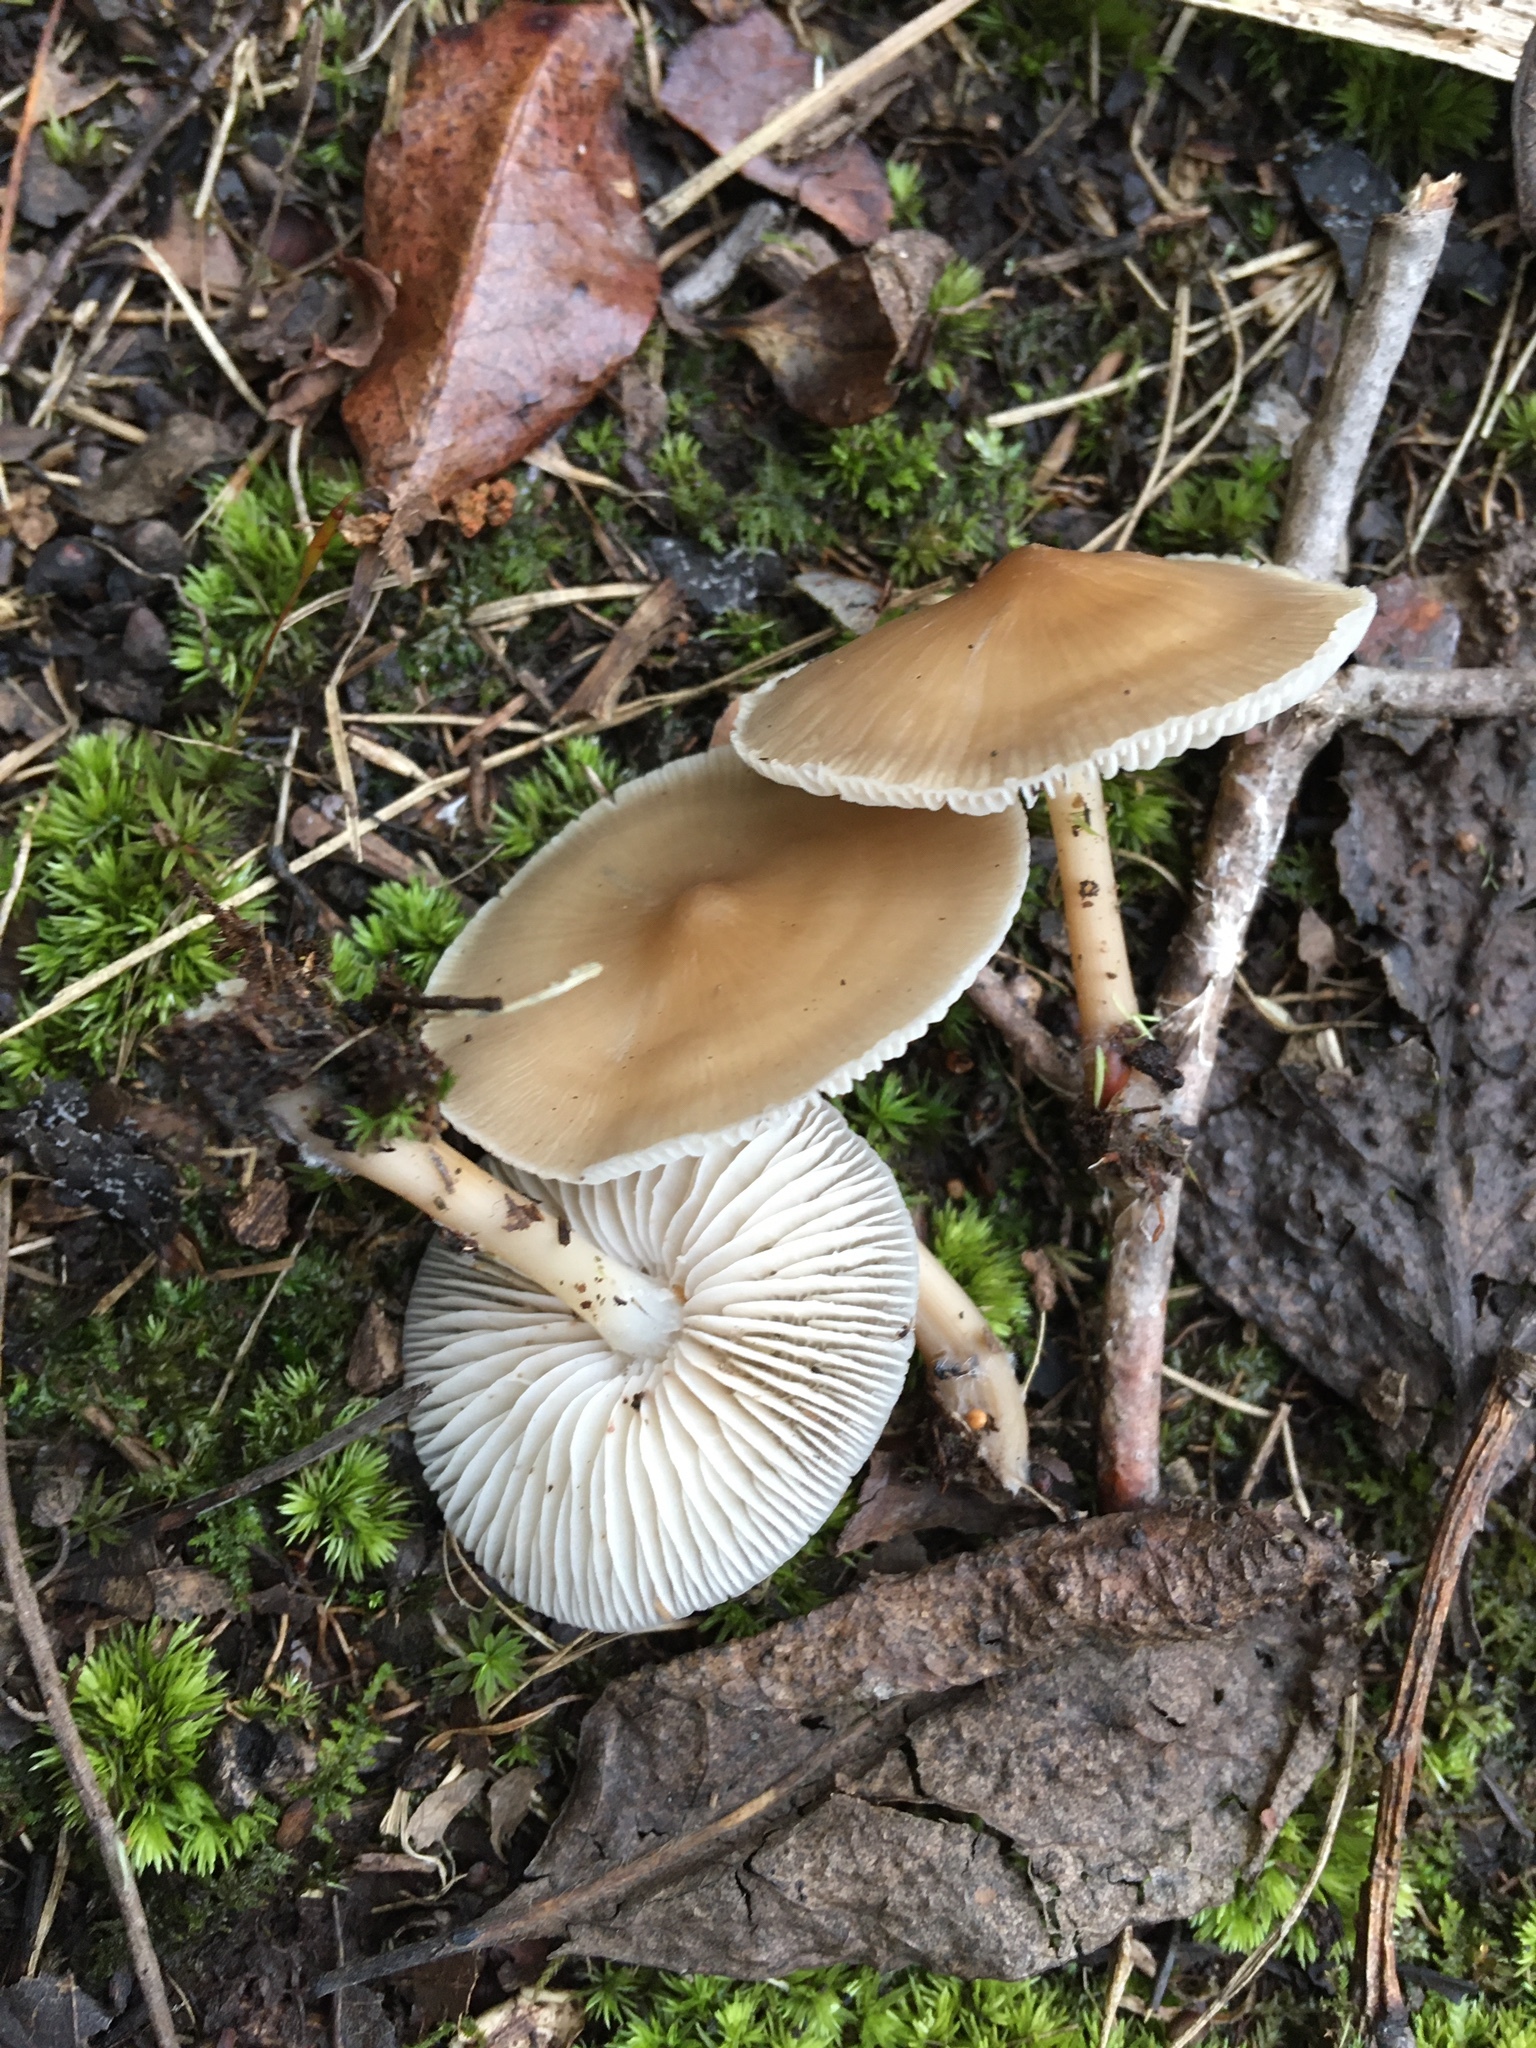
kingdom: Fungi
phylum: Basidiomycota
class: Agaricomycetes
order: Agaricales
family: Mycenaceae
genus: Mycena
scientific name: Mycena galericulata
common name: Bonnet mycena
